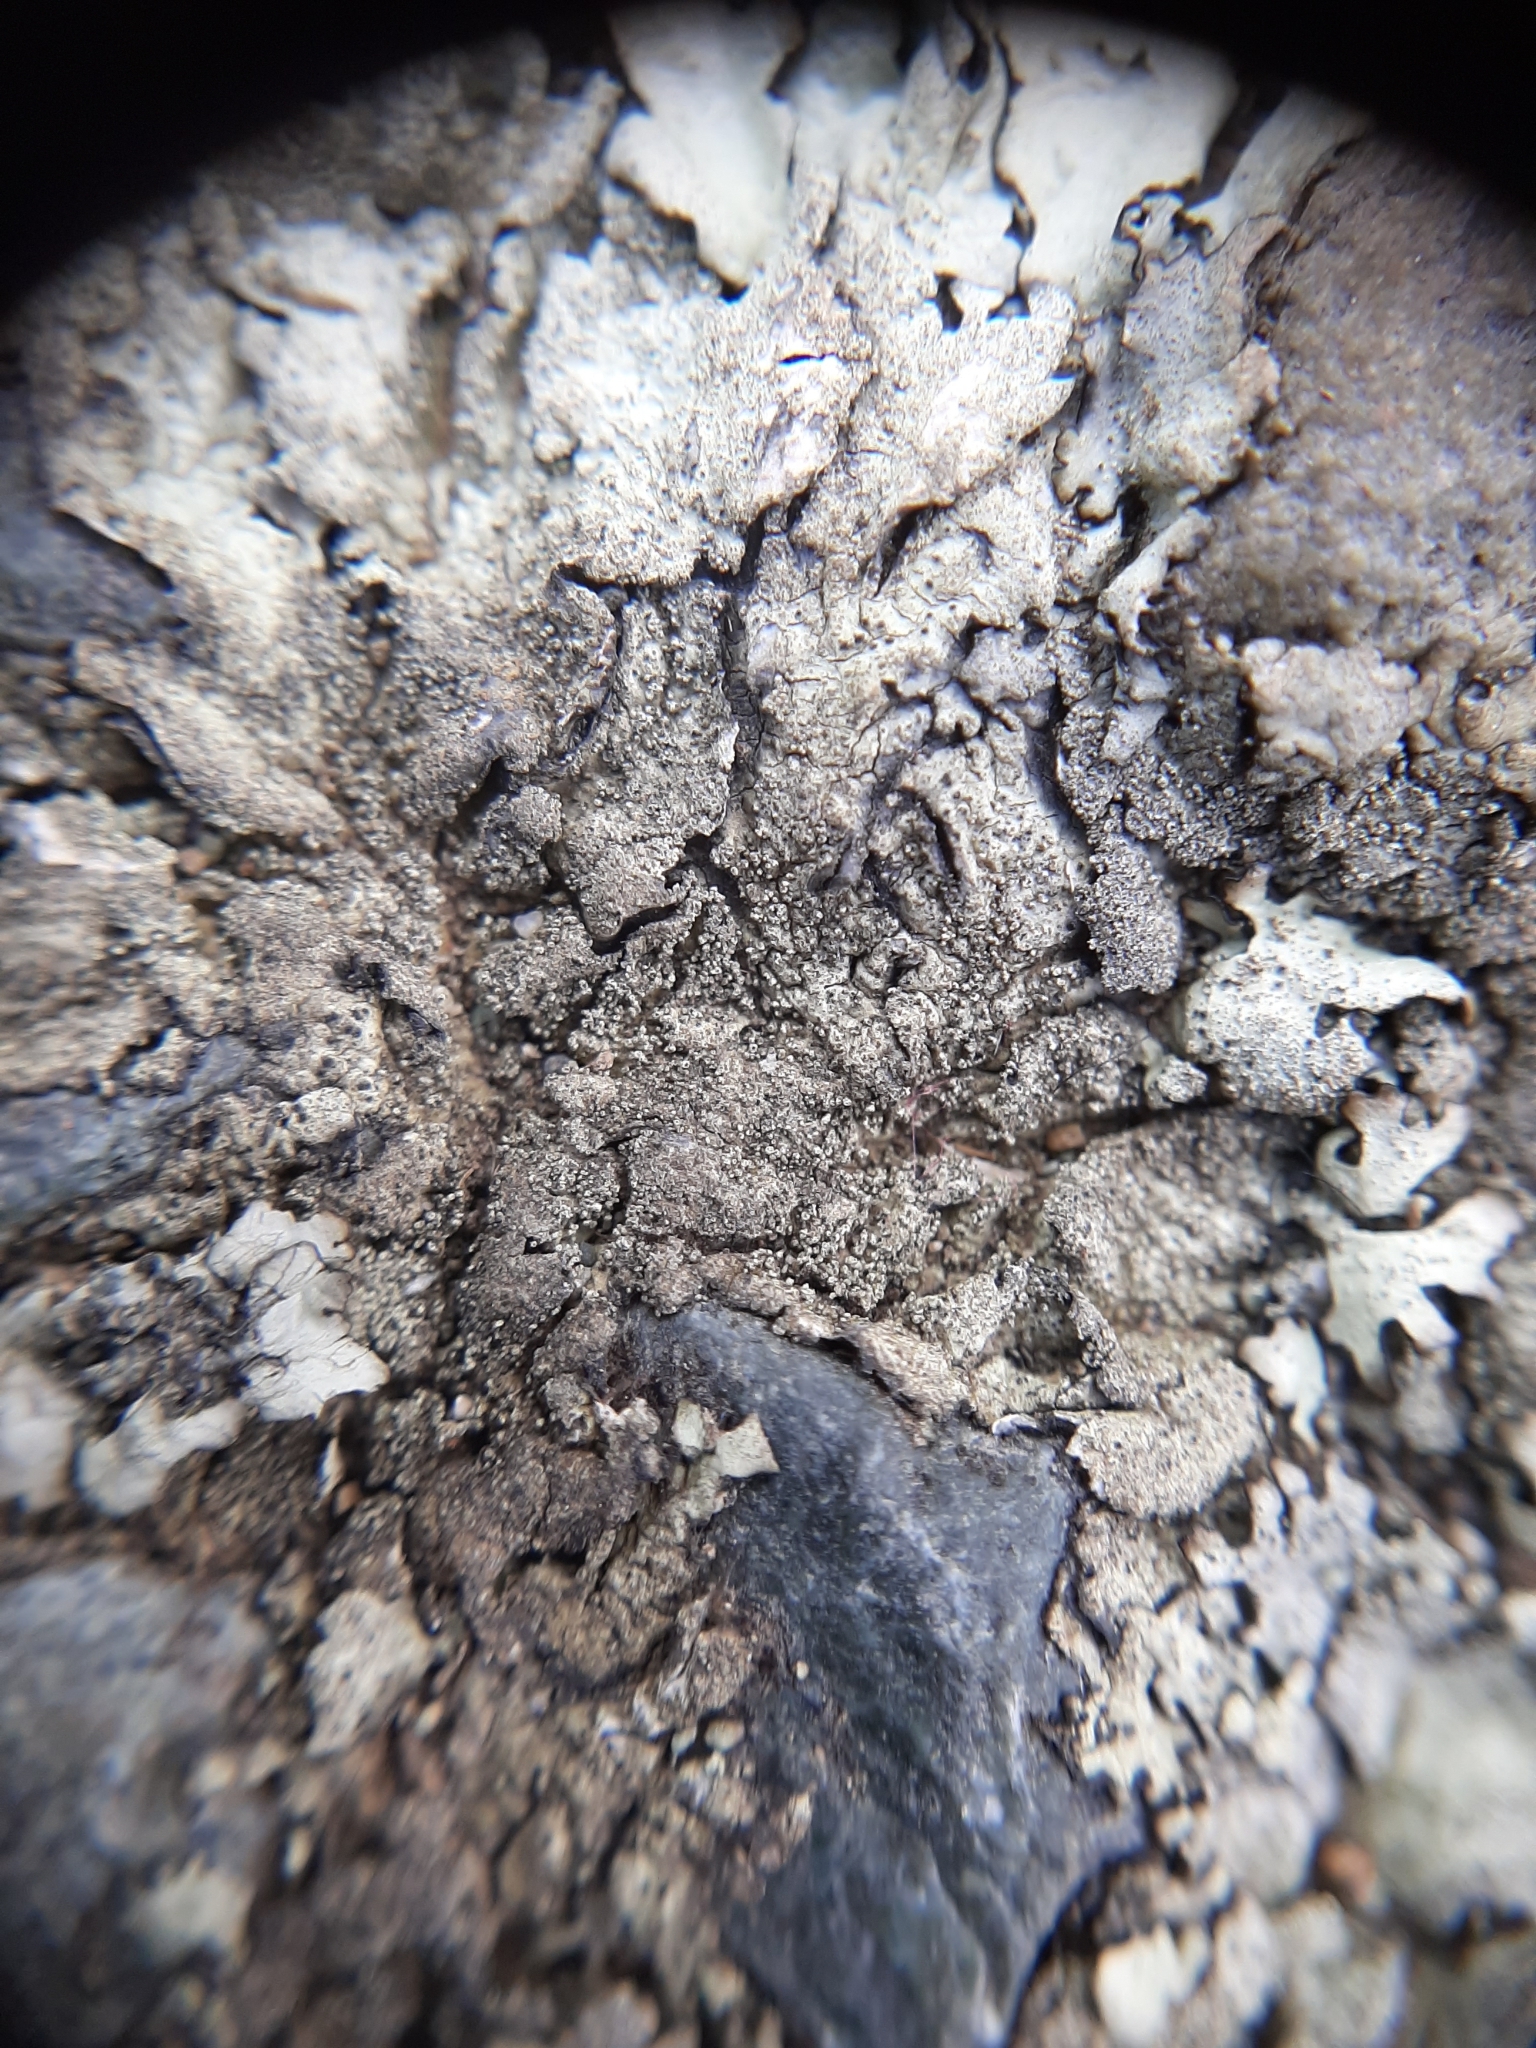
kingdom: Fungi
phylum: Ascomycota
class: Lecanoromycetes
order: Lecanorales
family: Parmeliaceae
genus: Xanthoparmelia
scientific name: Xanthoparmelia scabrosa
